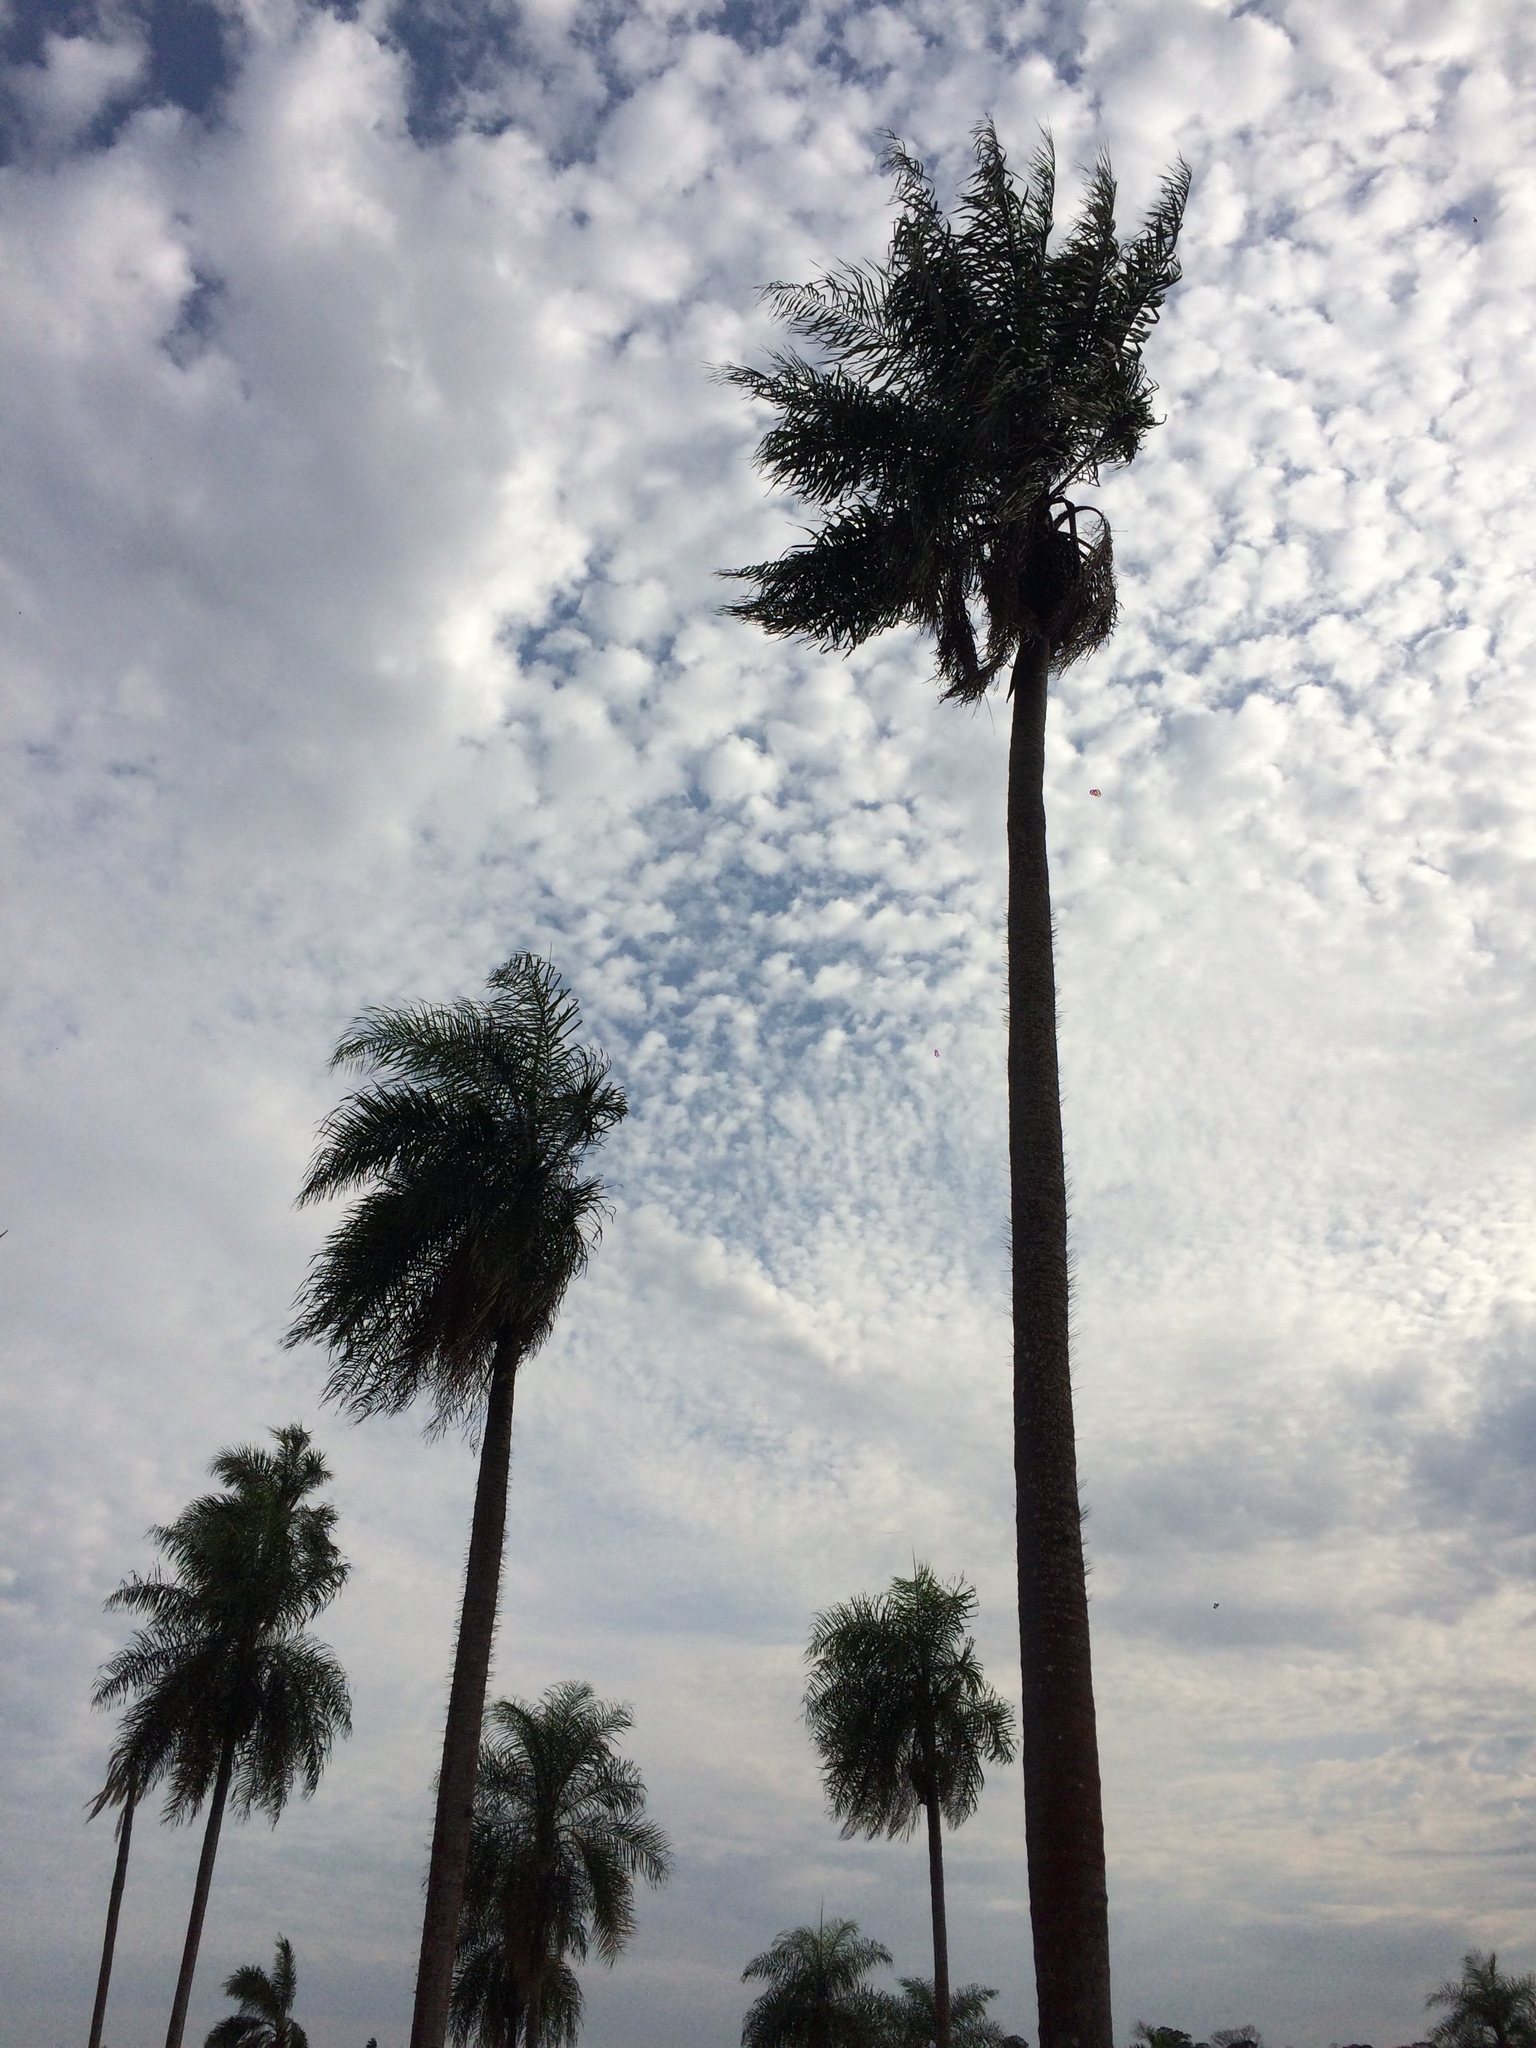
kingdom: Plantae
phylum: Tracheophyta
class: Liliopsida
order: Arecales
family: Arecaceae
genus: Acrocomia
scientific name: Acrocomia aculeata
